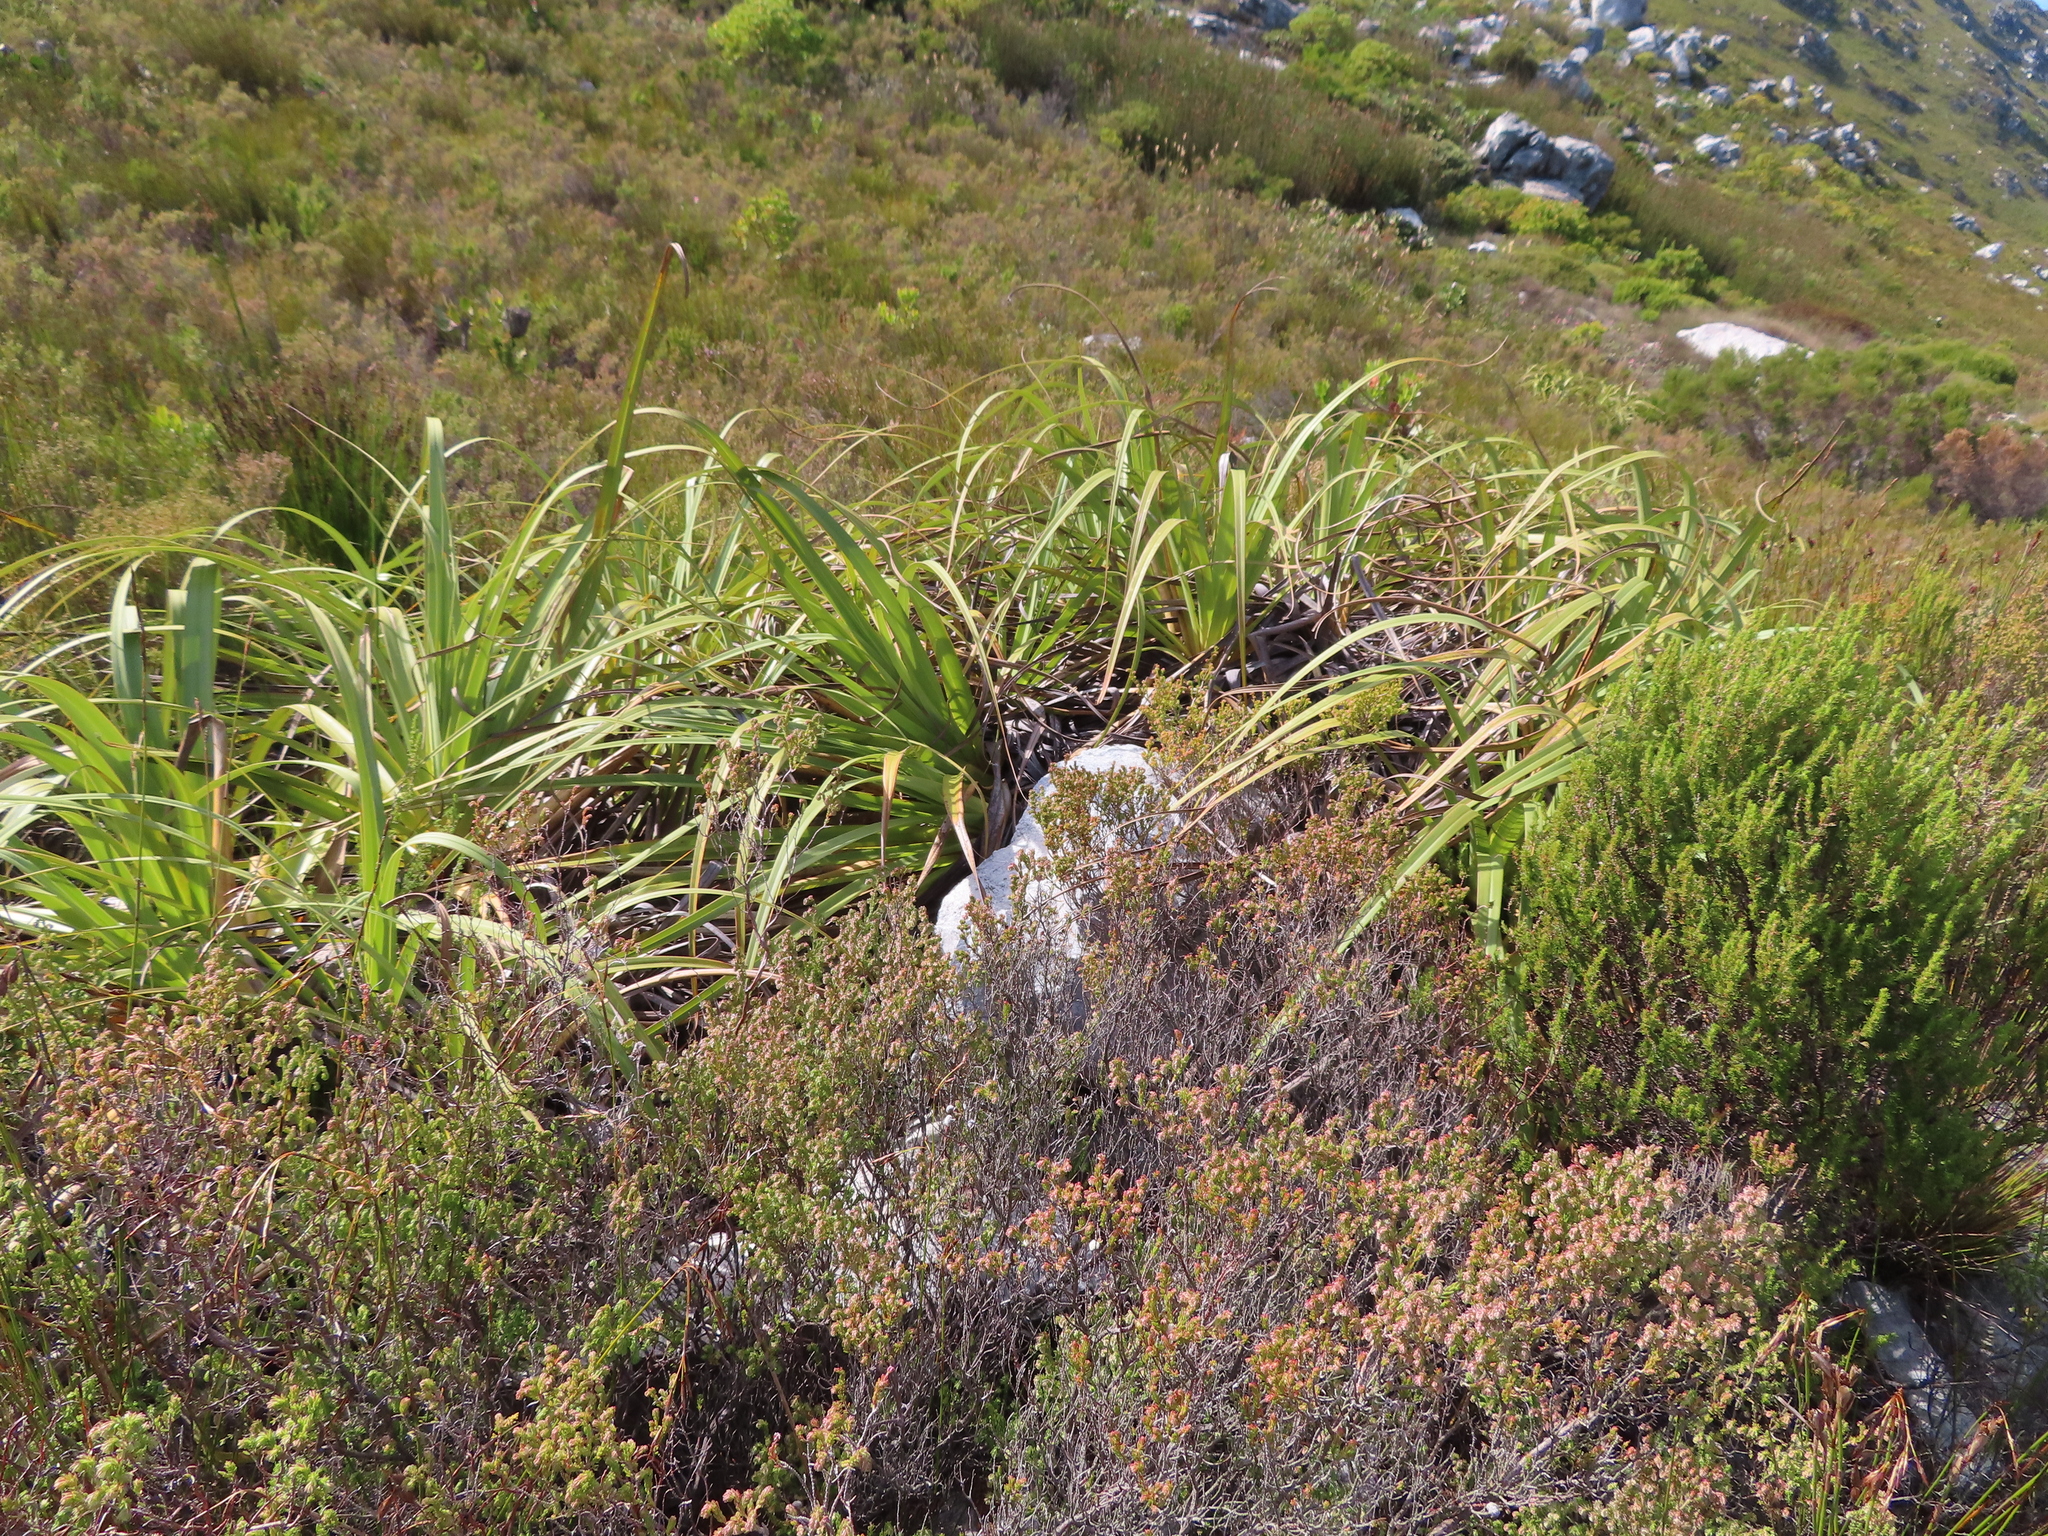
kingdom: Plantae
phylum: Tracheophyta
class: Liliopsida
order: Poales
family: Cyperaceae
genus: Tetraria
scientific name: Tetraria thermalis
